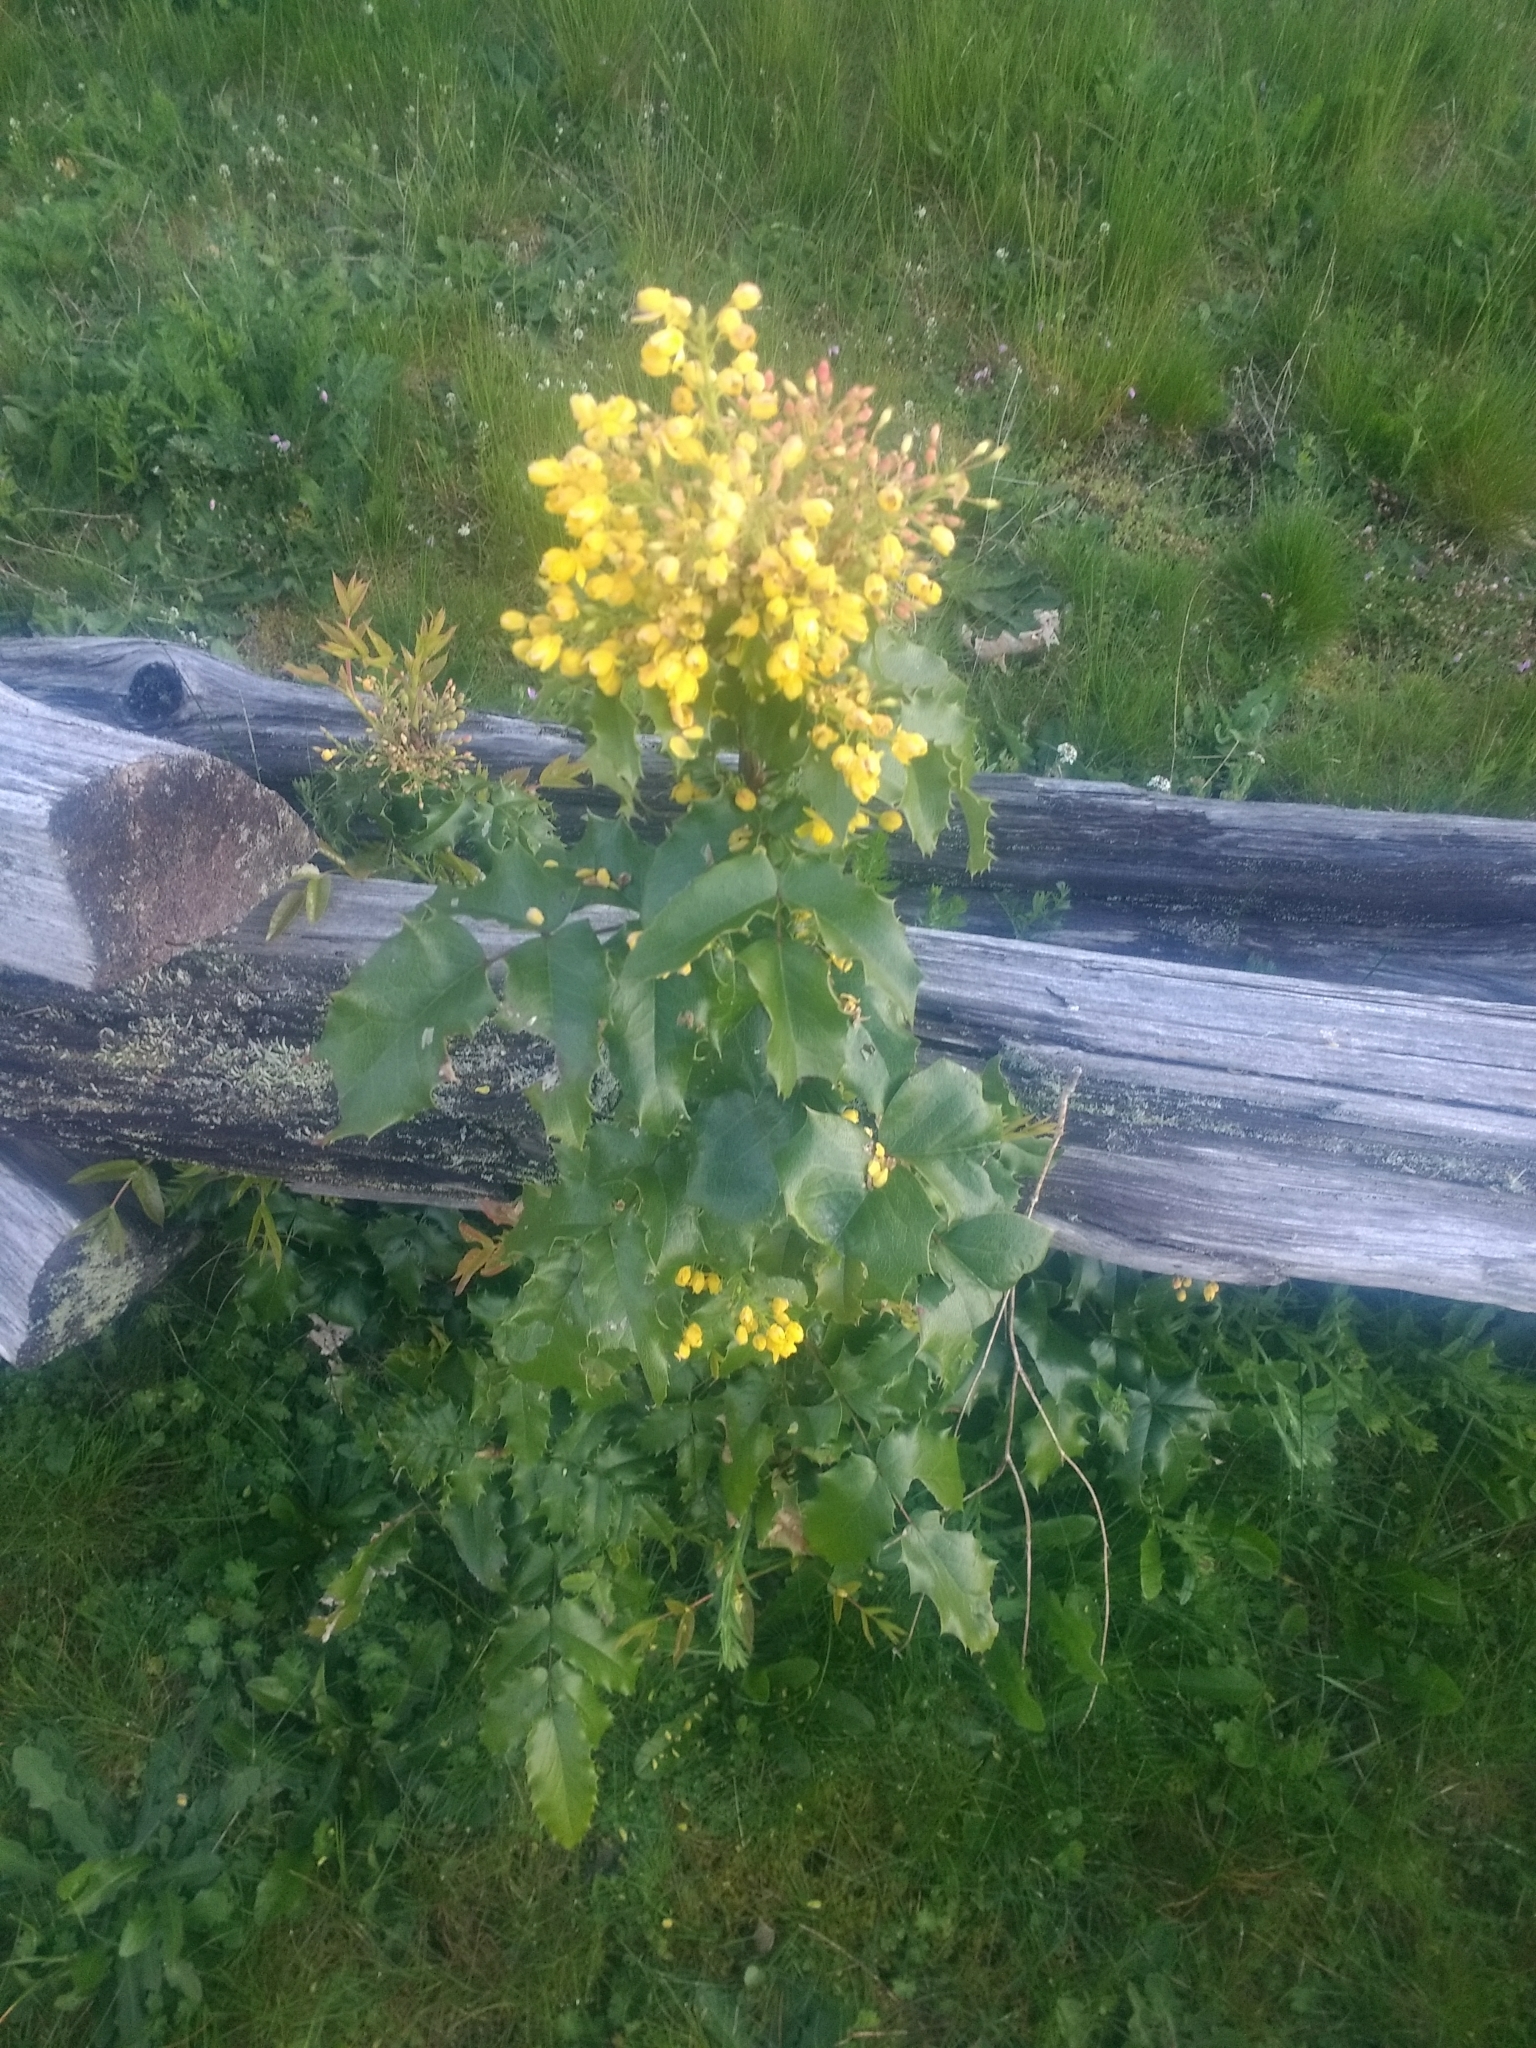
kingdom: Plantae
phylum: Tracheophyta
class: Magnoliopsida
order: Ranunculales
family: Berberidaceae
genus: Mahonia
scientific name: Mahonia aquifolium
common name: Oregon-grape
